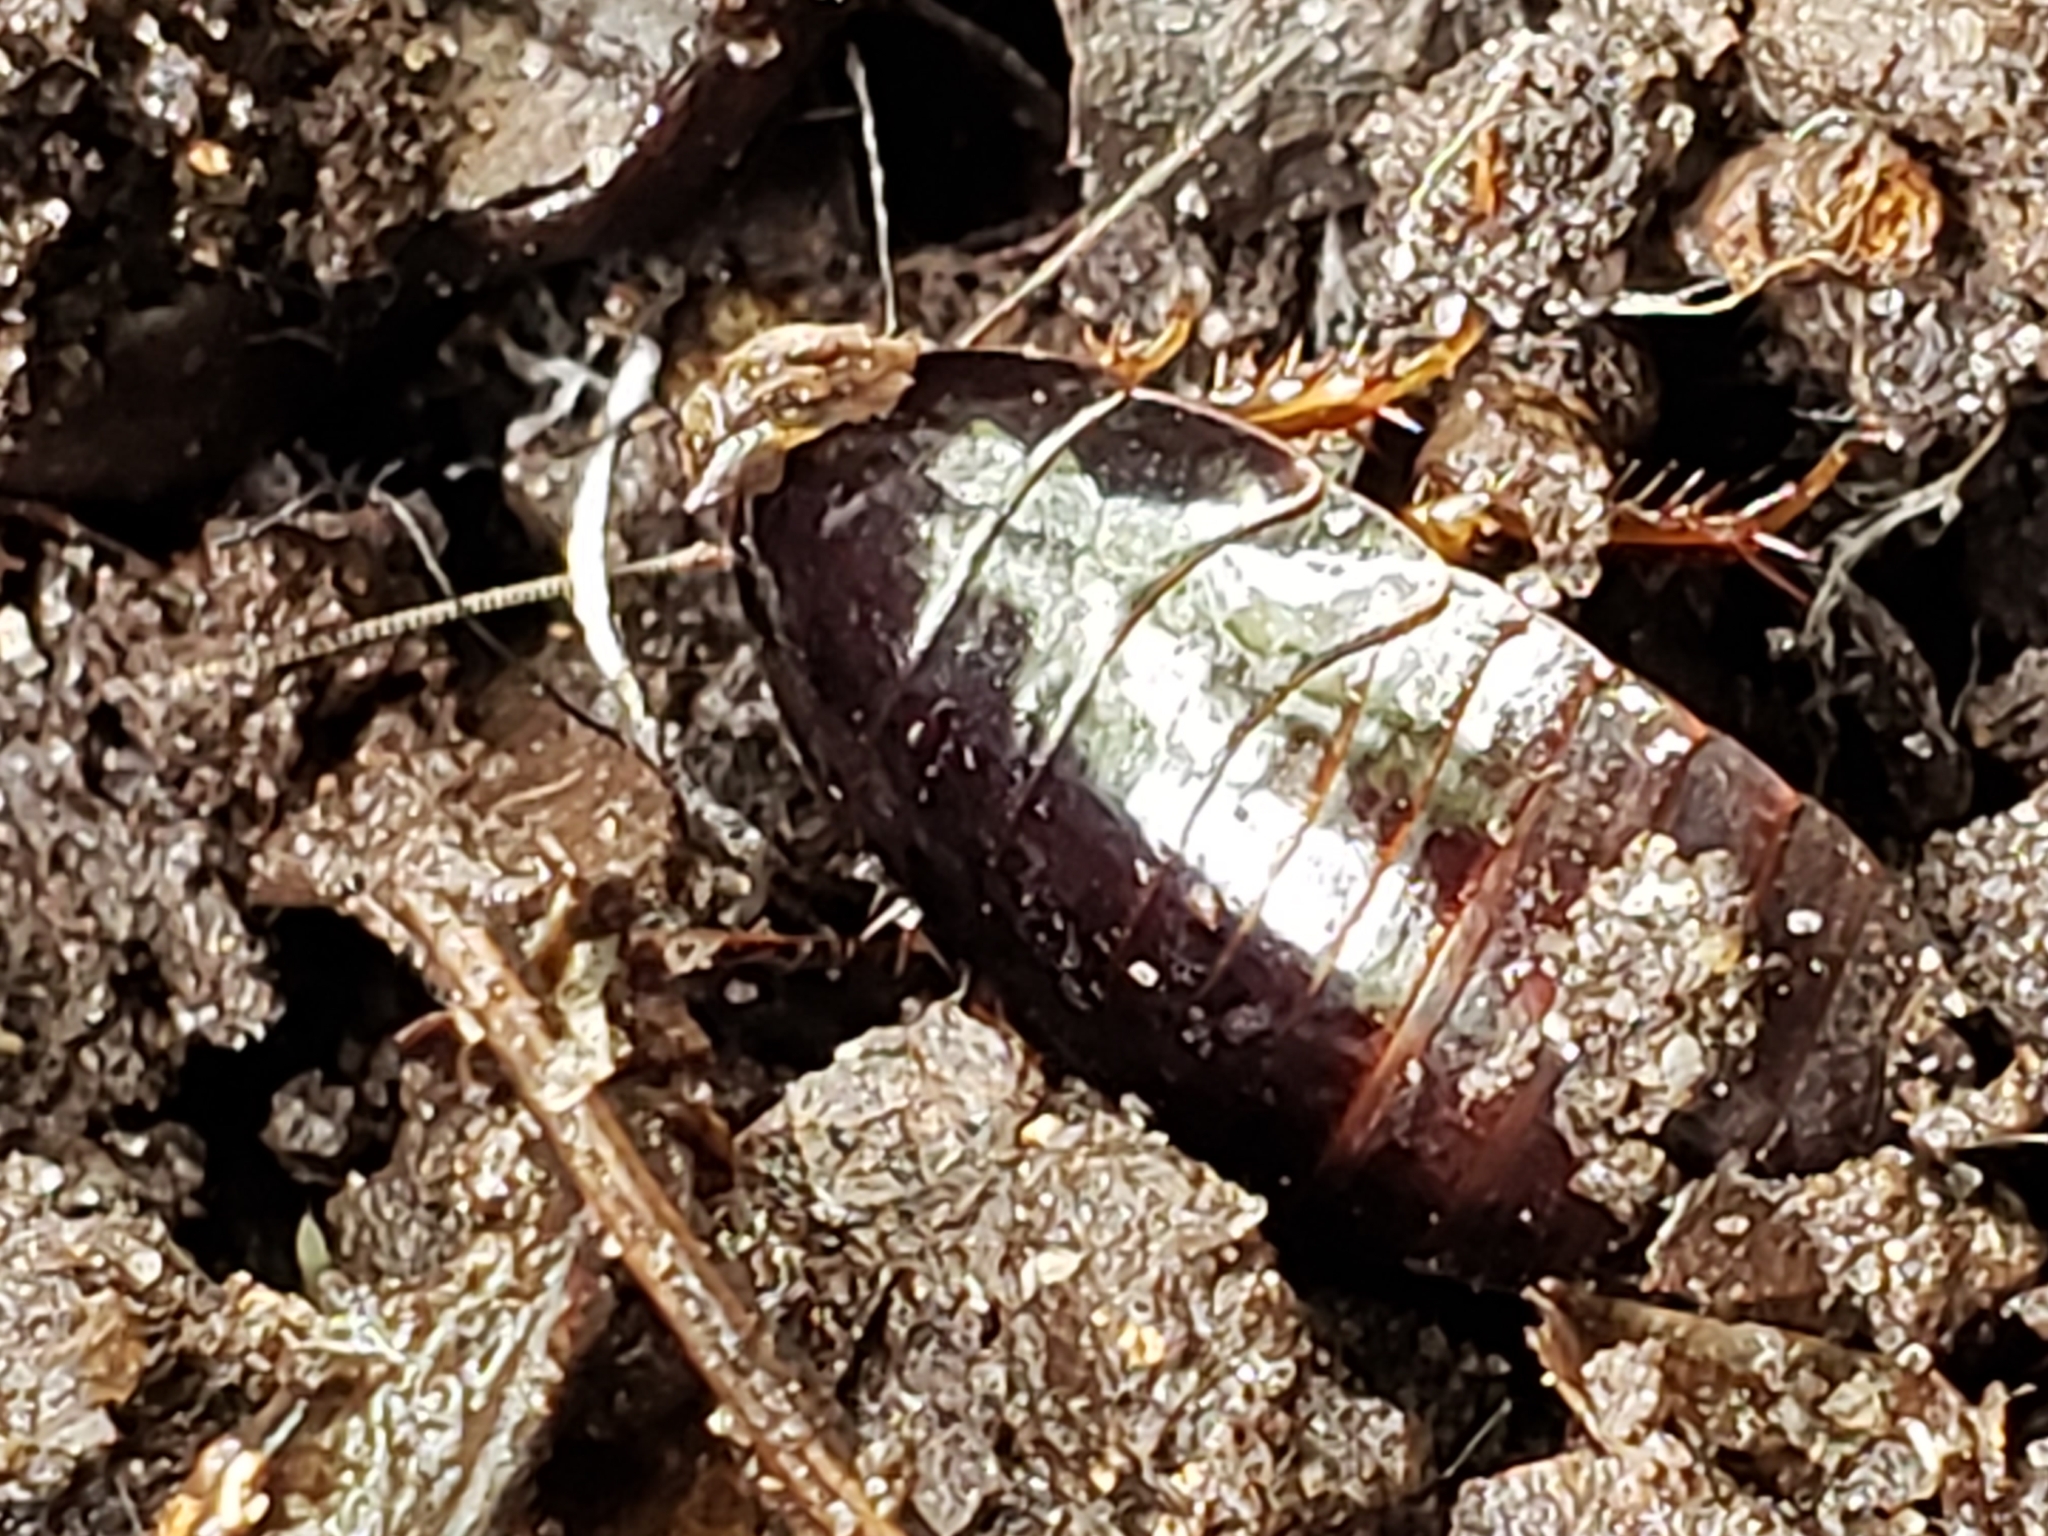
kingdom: Animalia
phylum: Arthropoda
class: Insecta
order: Blattodea
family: Blaberidae
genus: Pycnoscelus
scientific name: Pycnoscelus surinamensis
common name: Surinam cockroach
